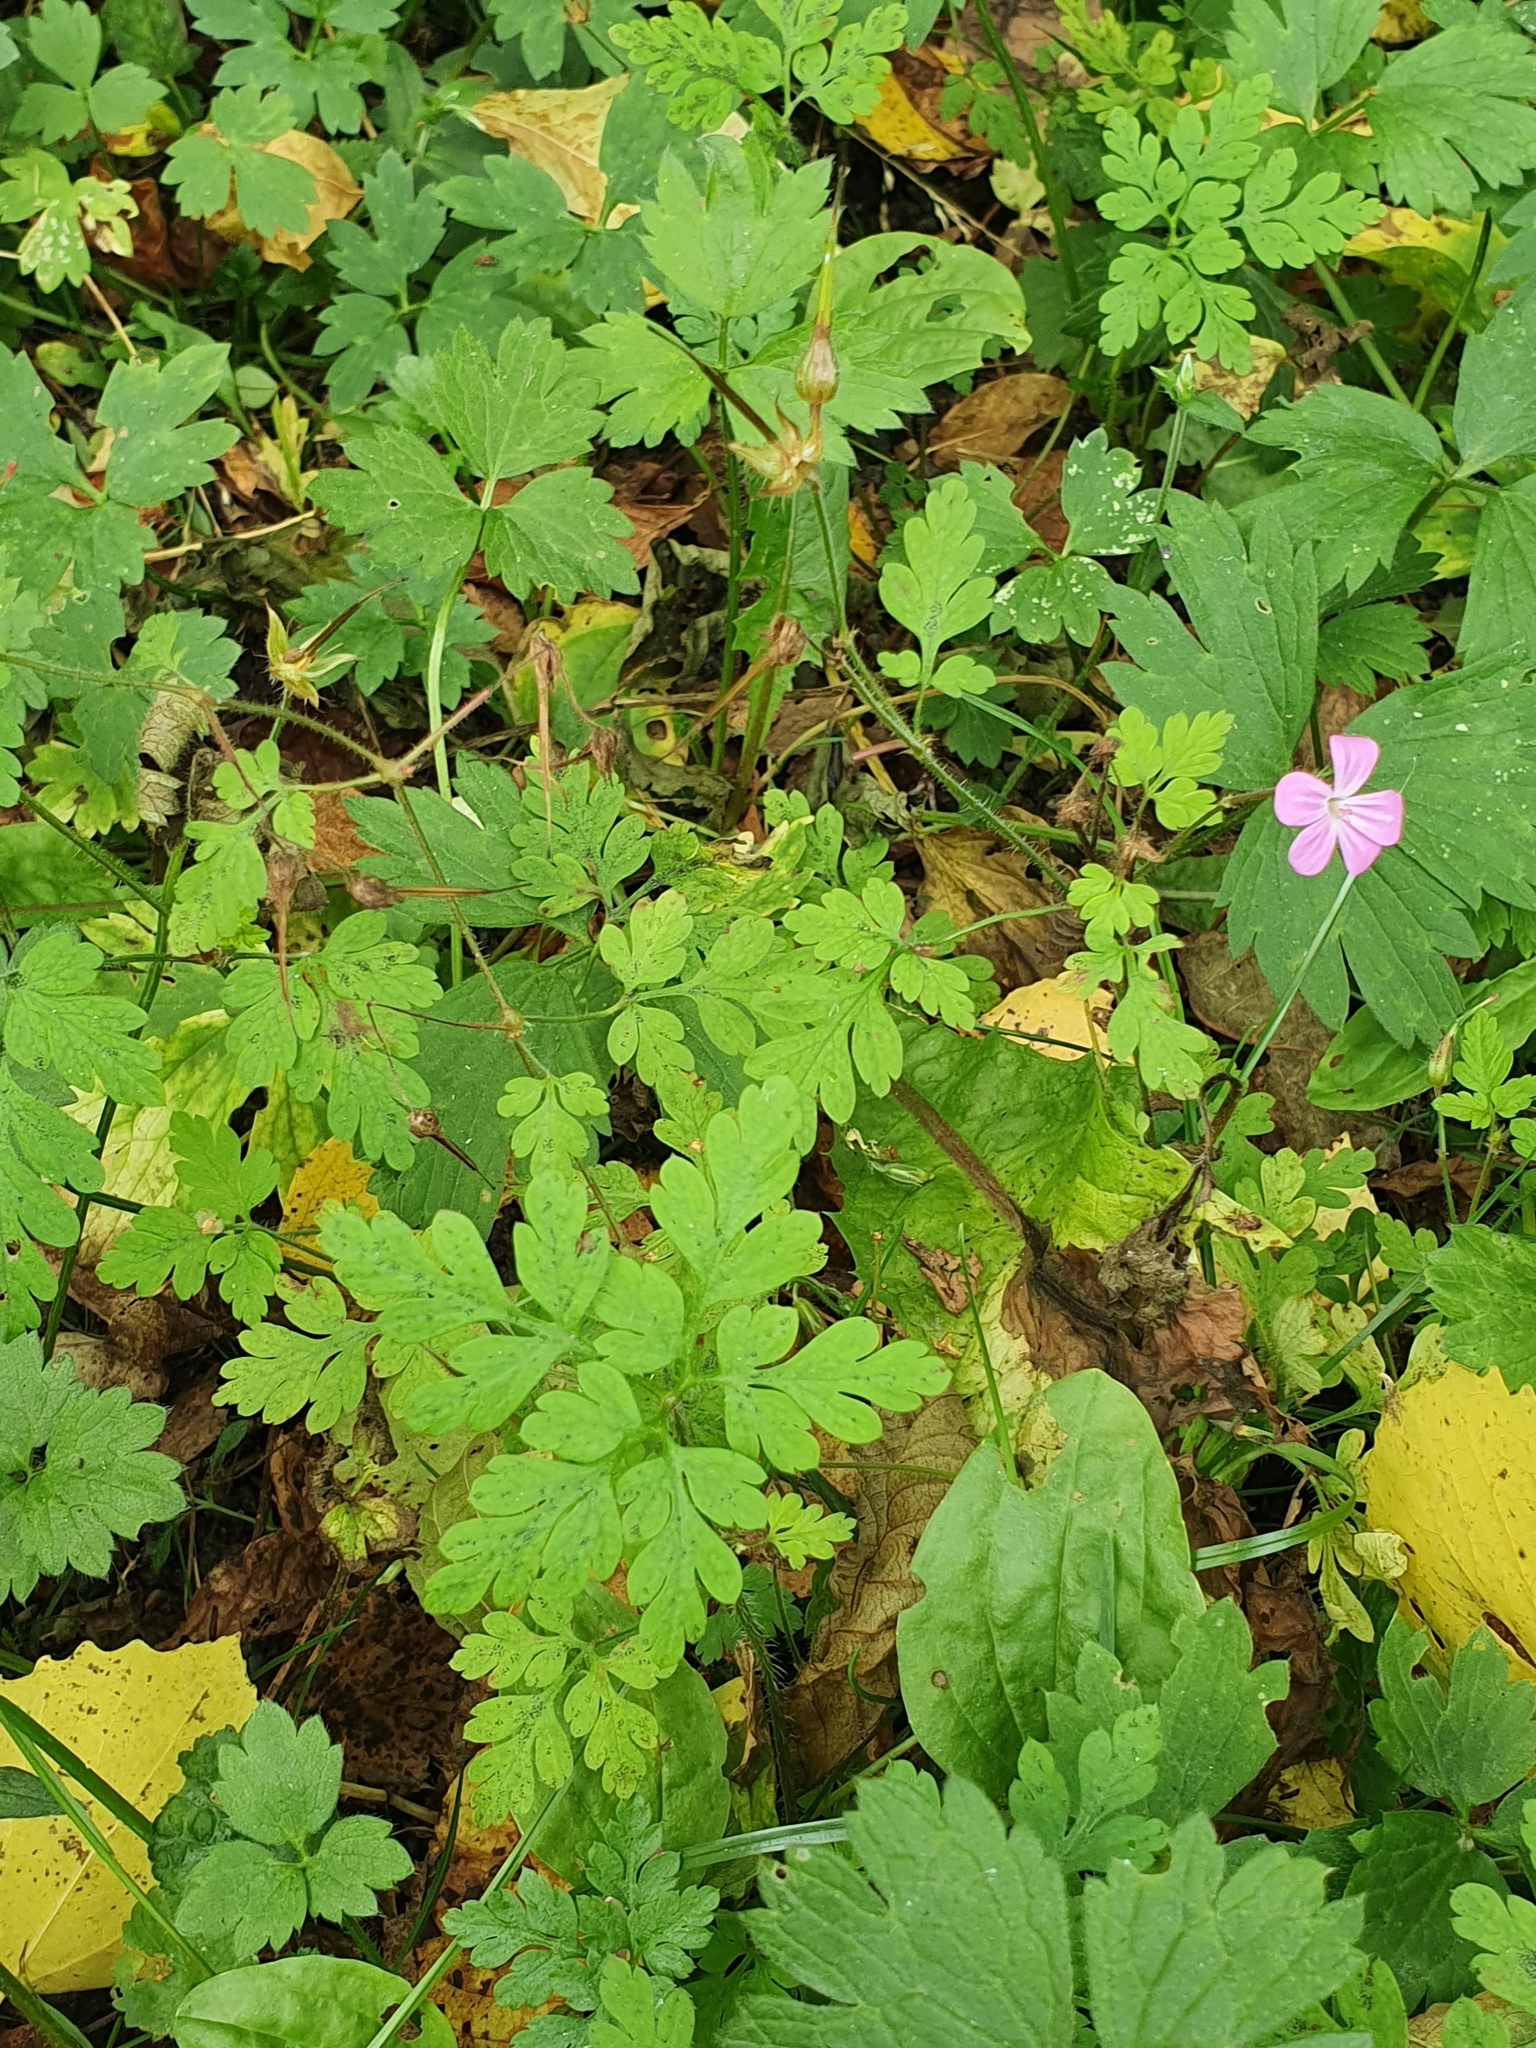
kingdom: Plantae
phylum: Tracheophyta
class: Magnoliopsida
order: Geraniales
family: Geraniaceae
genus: Geranium
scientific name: Geranium robertianum
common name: Herb-robert
